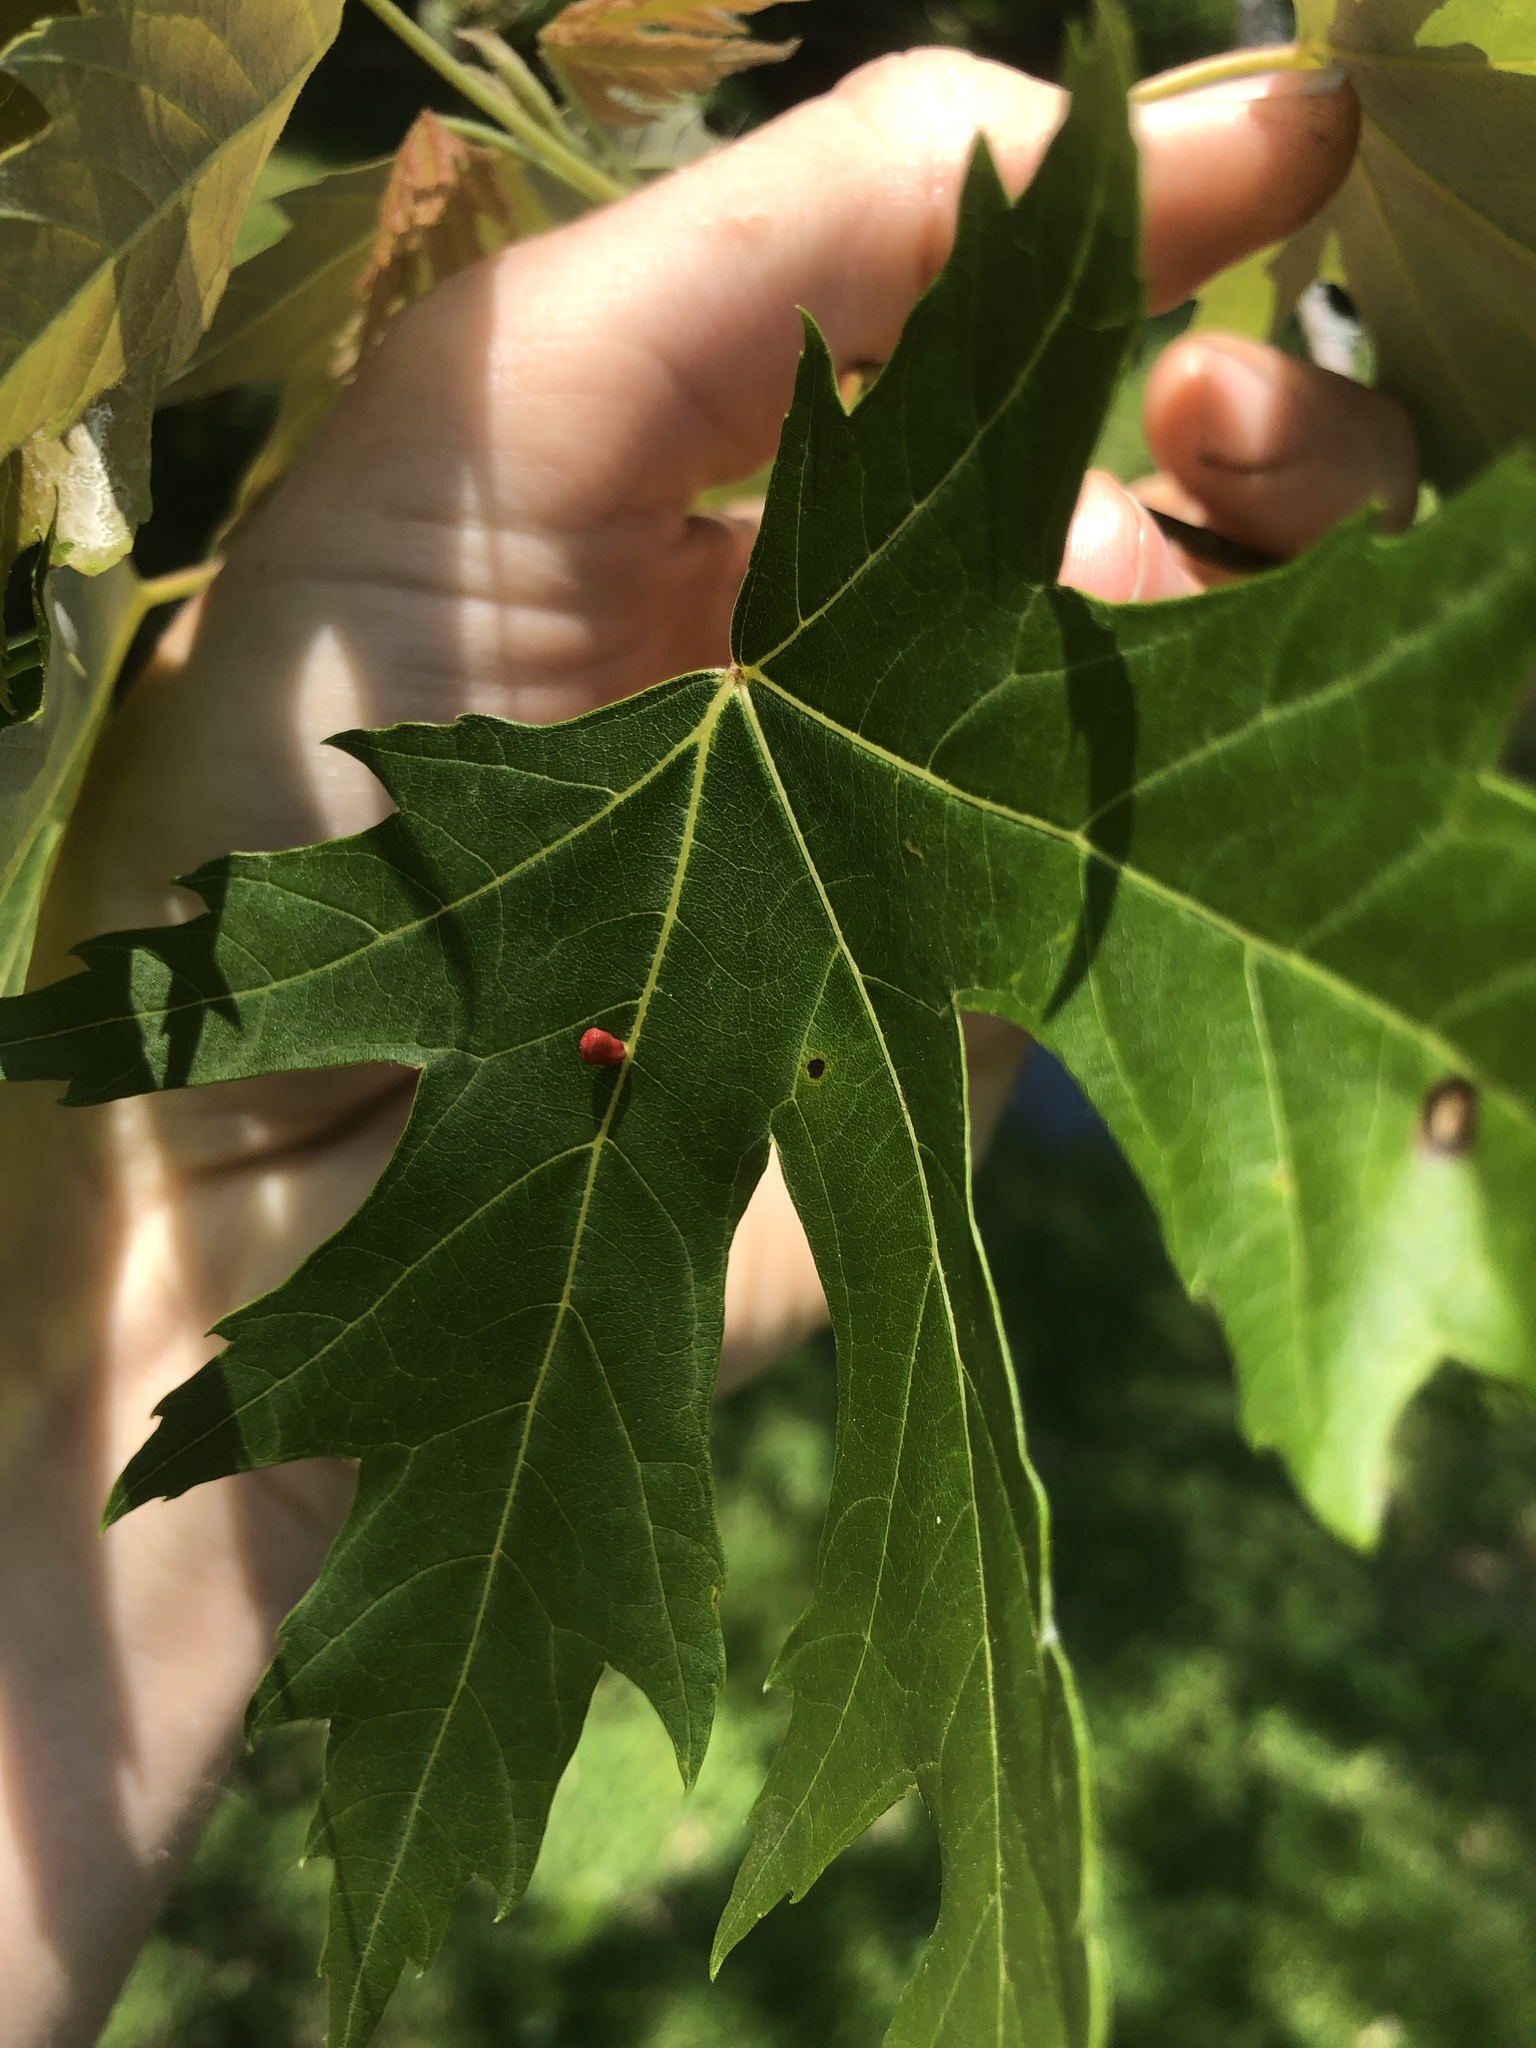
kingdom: Animalia
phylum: Arthropoda
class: Arachnida
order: Trombidiformes
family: Eriophyidae
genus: Vasates
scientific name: Vasates quadripedes
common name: Maple bladder gall mite
